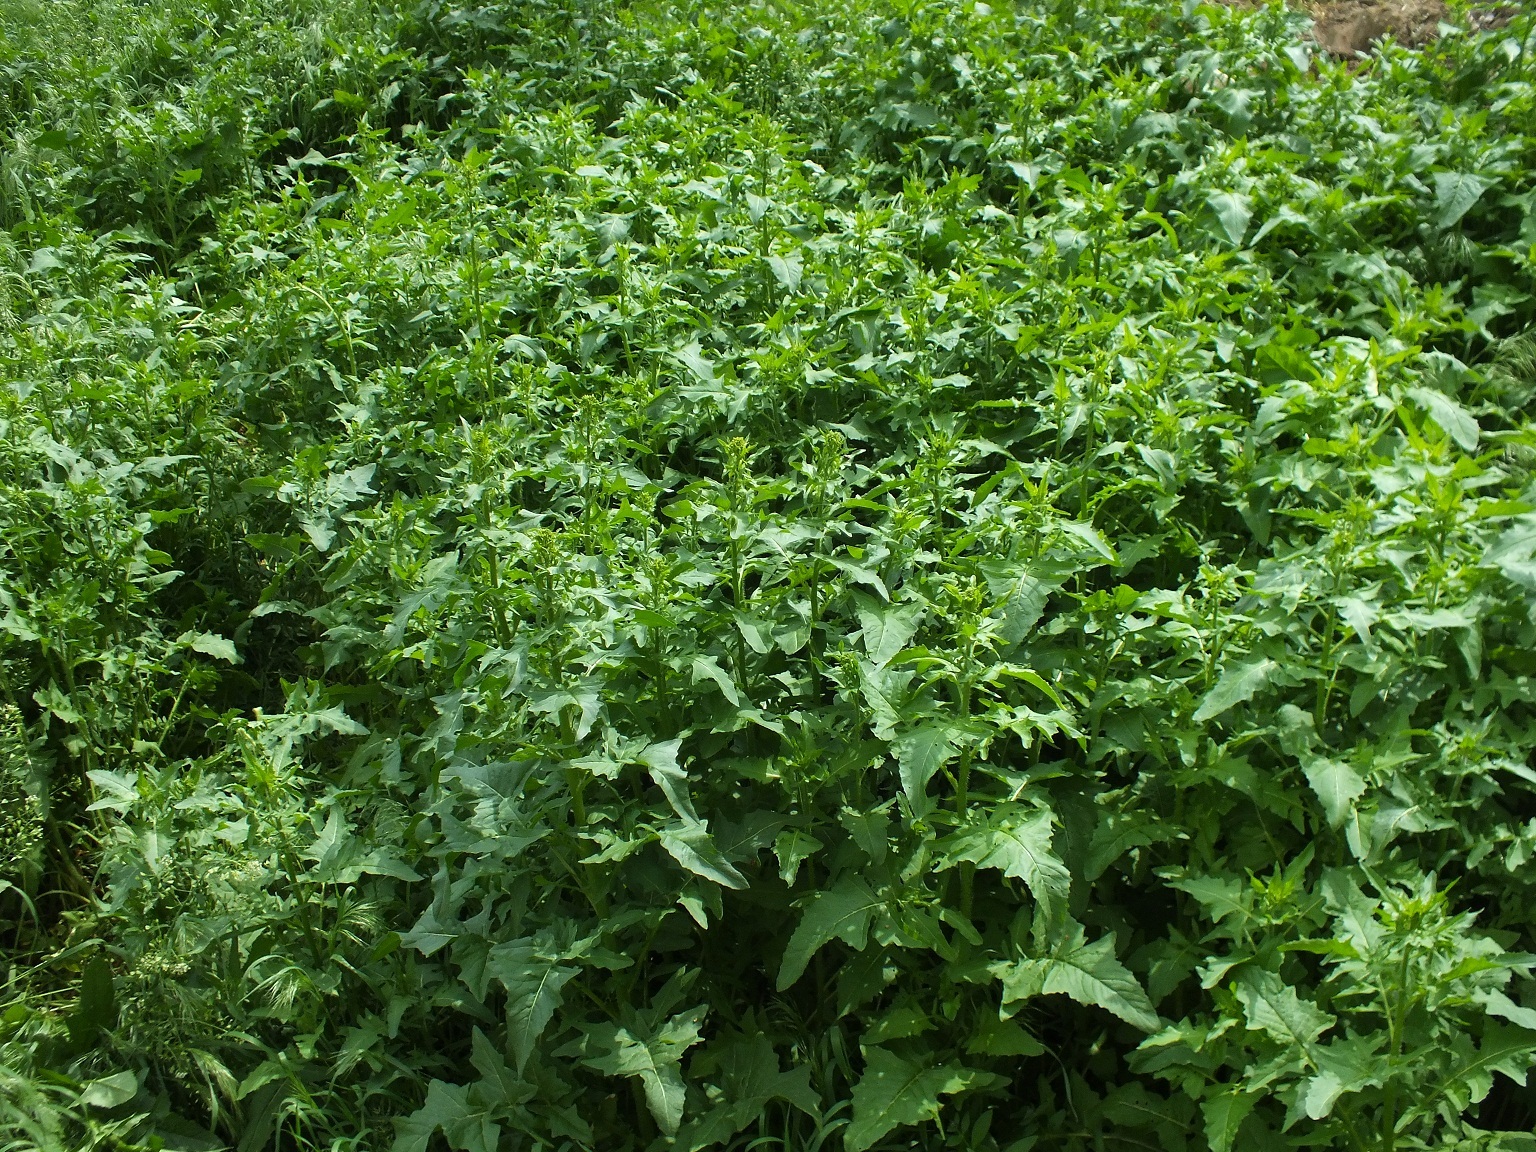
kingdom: Plantae
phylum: Tracheophyta
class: Magnoliopsida
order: Brassicales
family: Brassicaceae
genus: Sisymbrium
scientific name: Sisymbrium loeselii
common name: False london-rocket
